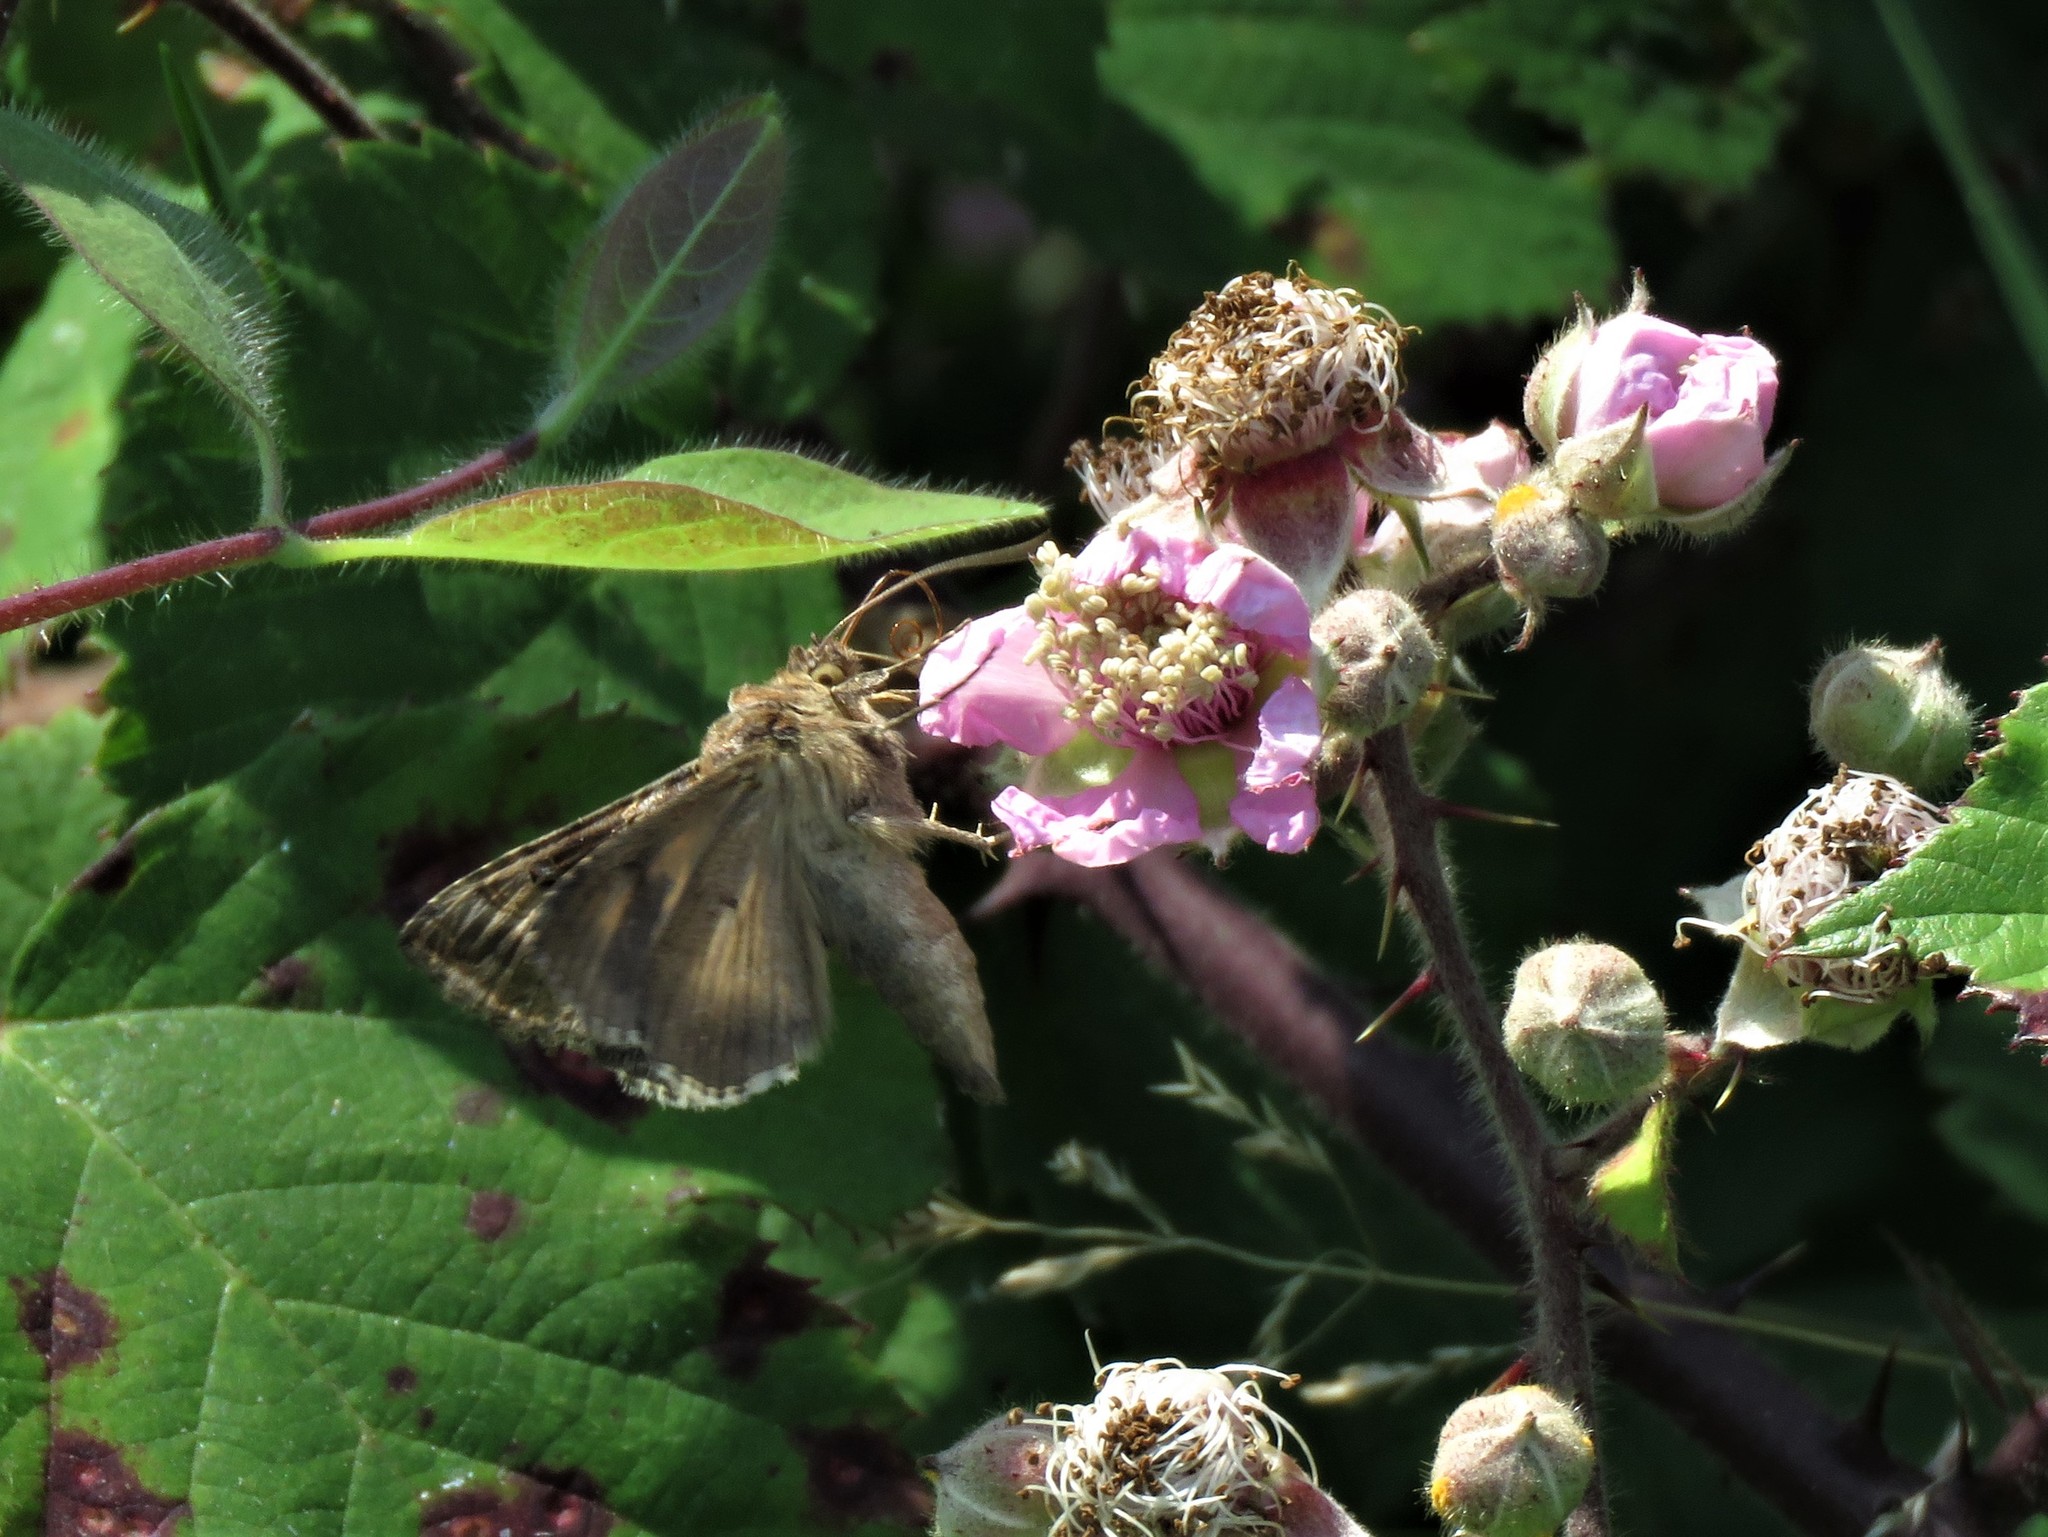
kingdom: Animalia
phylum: Arthropoda
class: Insecta
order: Lepidoptera
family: Noctuidae
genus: Autographa
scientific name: Autographa gamma
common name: Silver y
